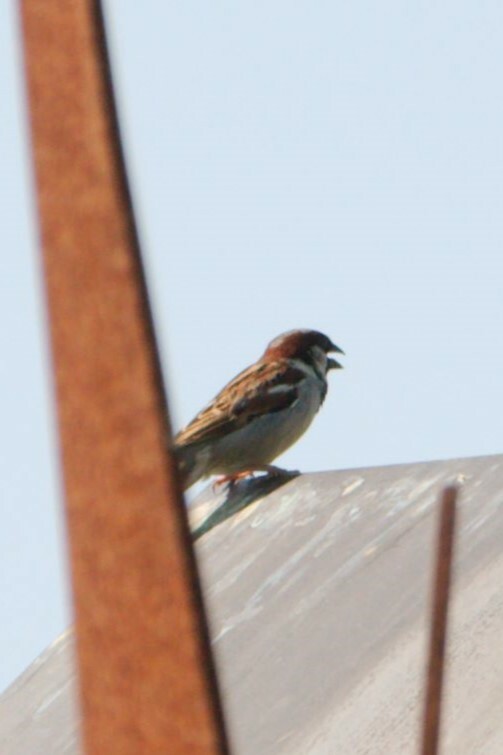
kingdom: Animalia
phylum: Chordata
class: Aves
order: Passeriformes
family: Passeridae
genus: Passer
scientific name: Passer domesticus
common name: House sparrow
